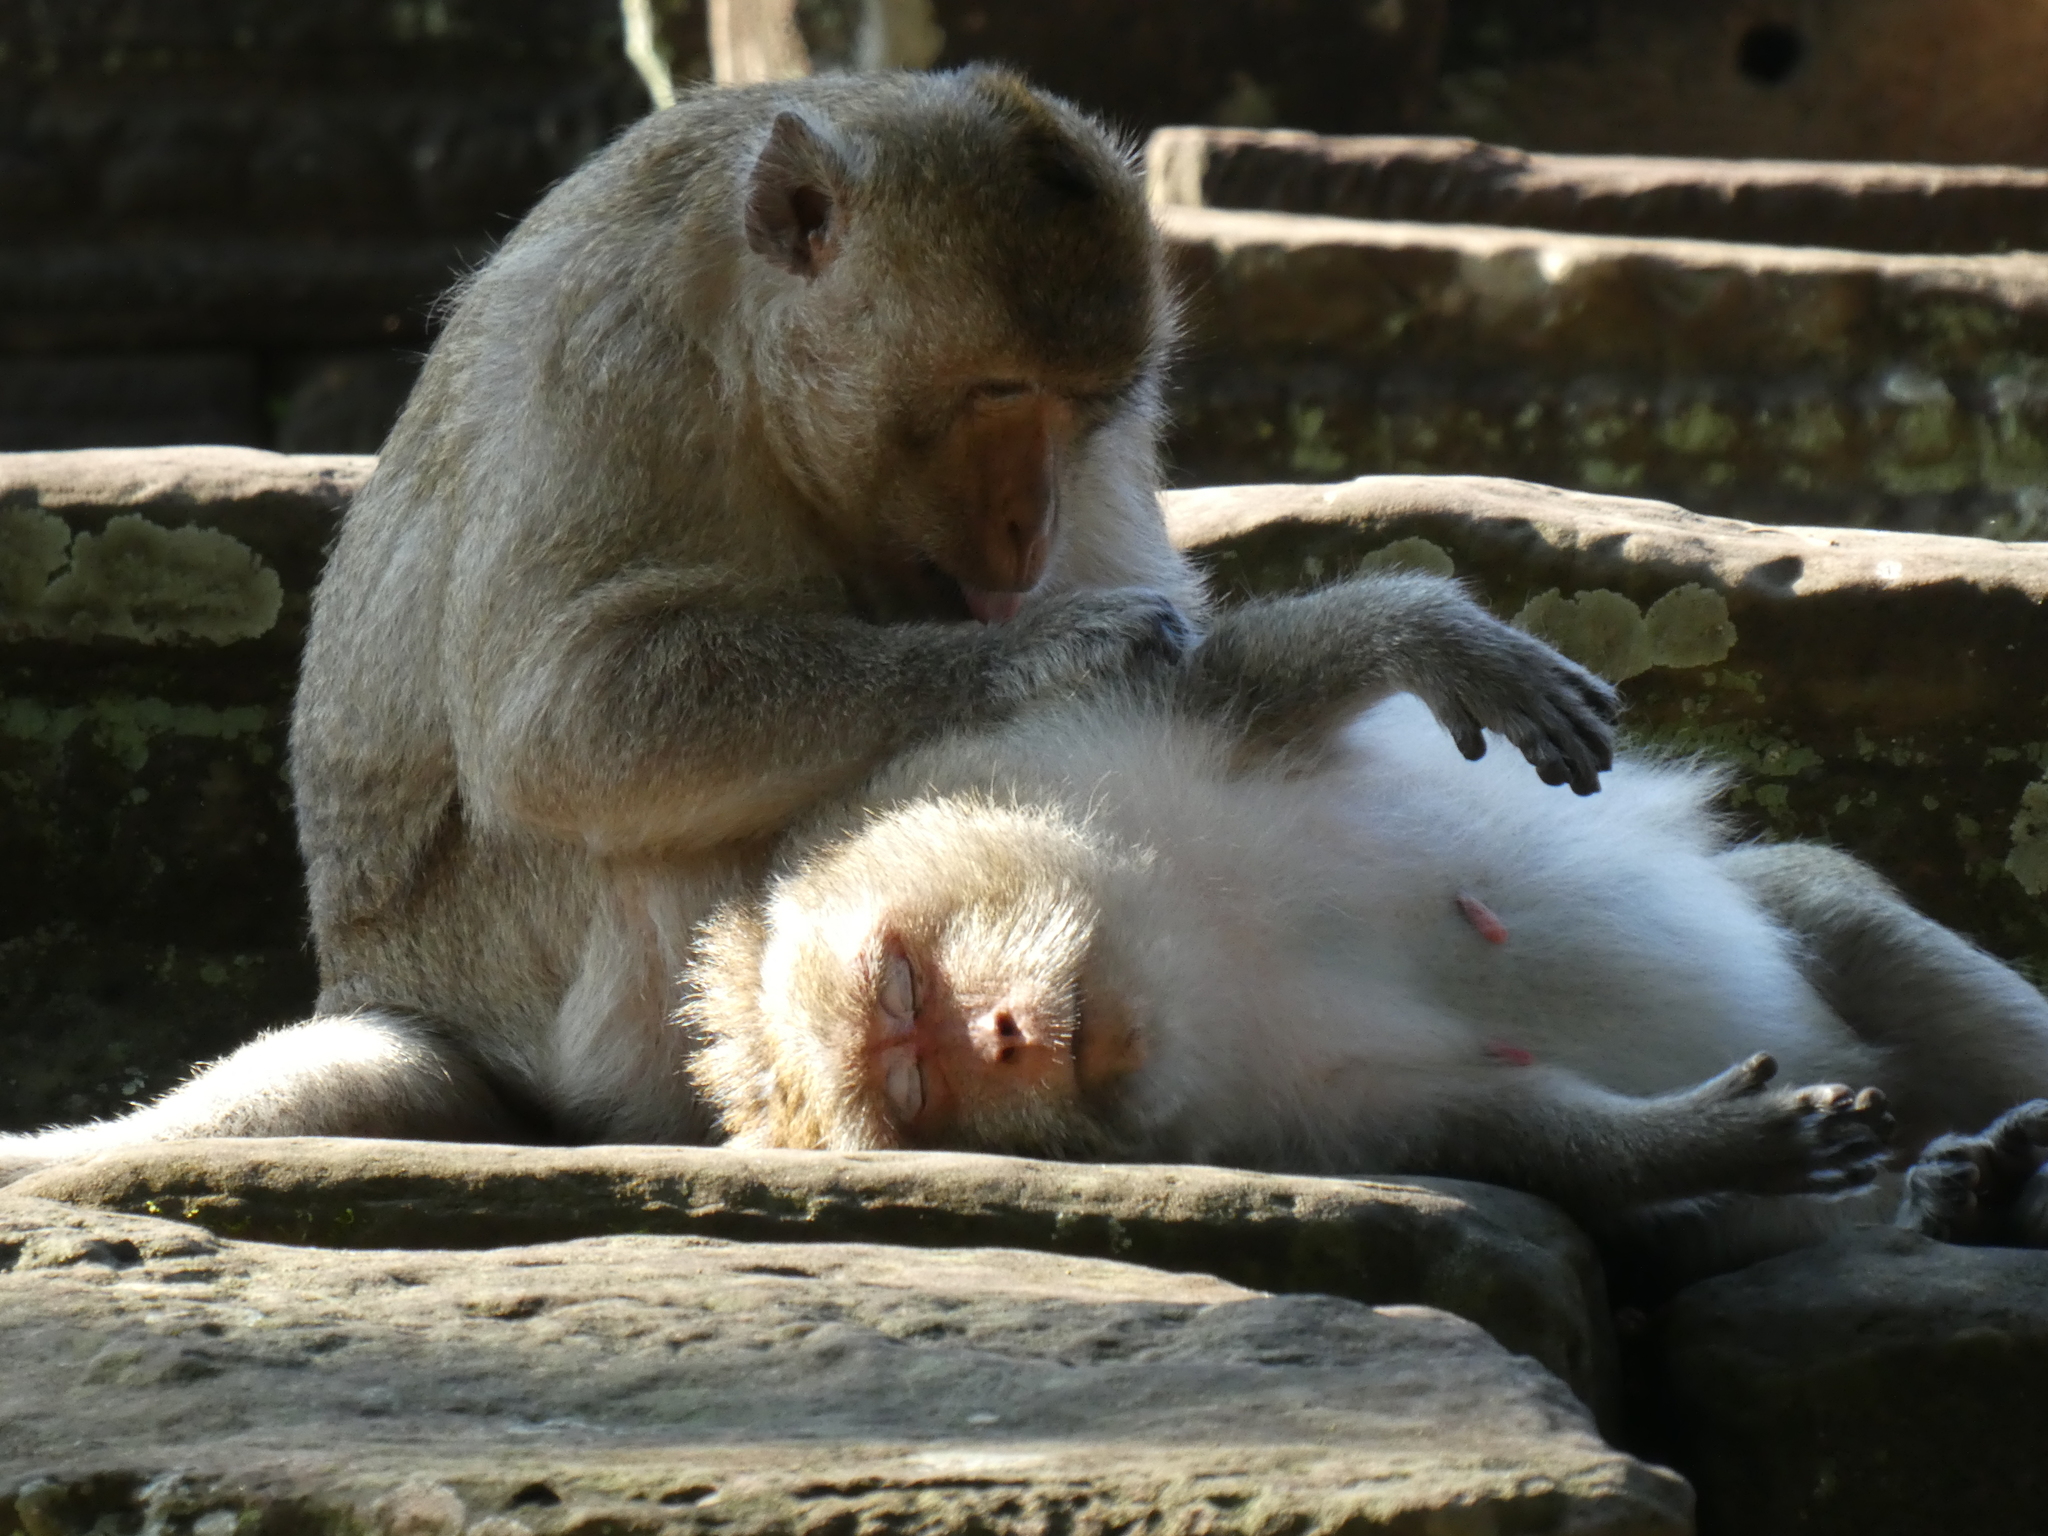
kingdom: Animalia
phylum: Chordata
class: Mammalia
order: Primates
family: Cercopithecidae
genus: Macaca
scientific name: Macaca fascicularis
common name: Crab-eating macaque
